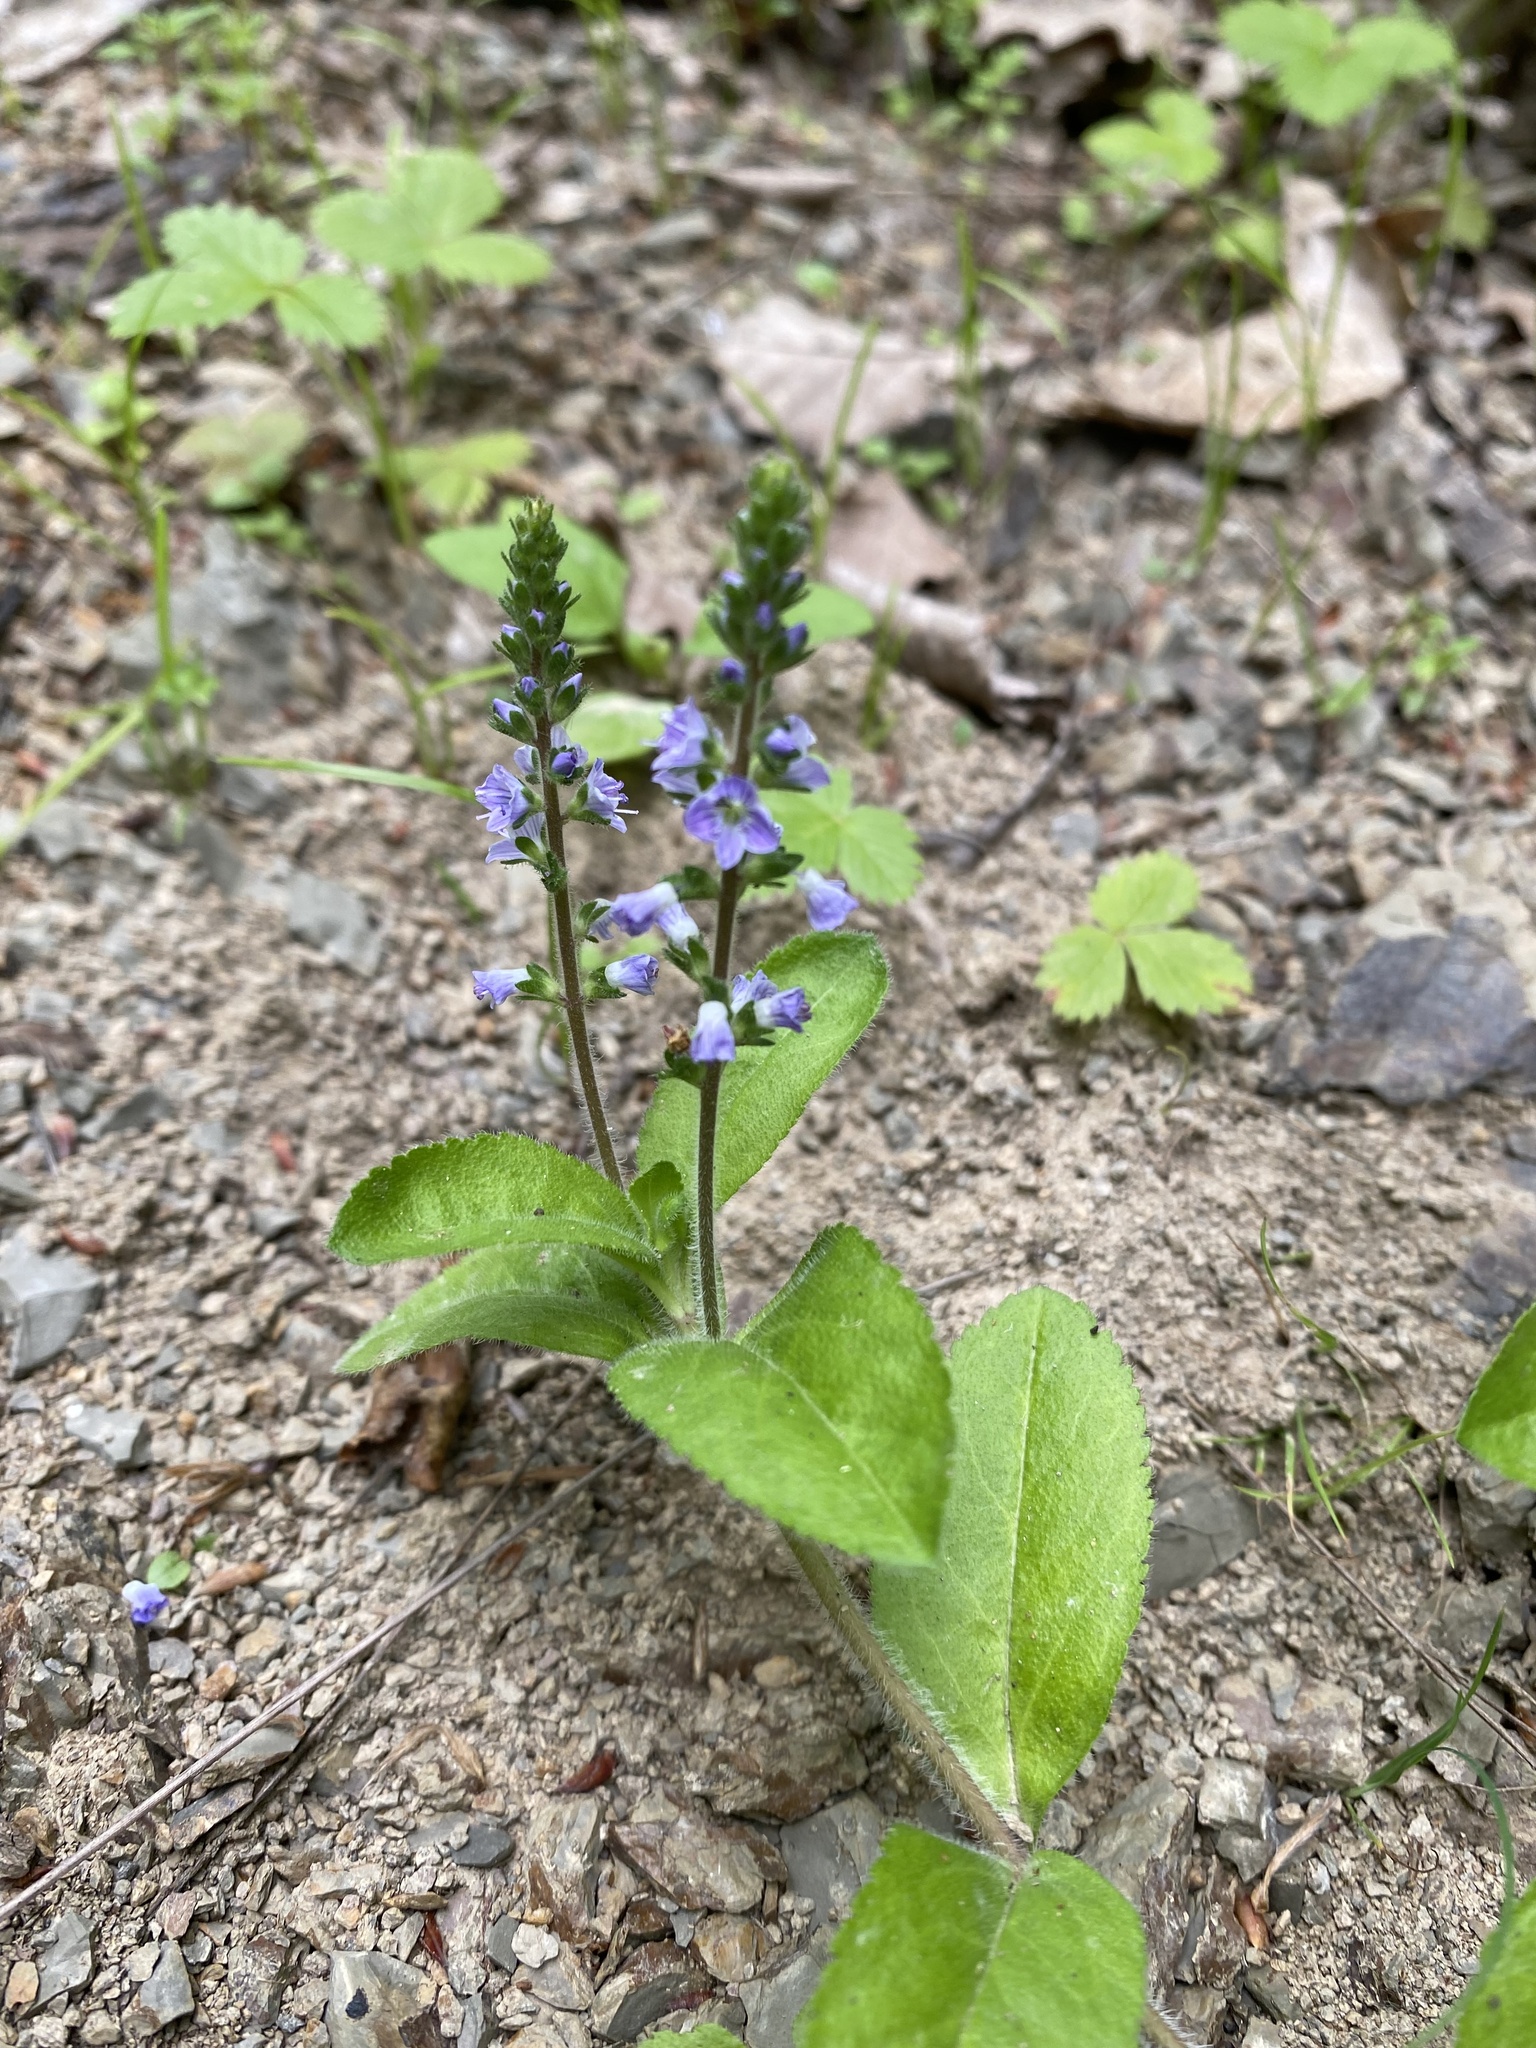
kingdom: Plantae
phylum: Tracheophyta
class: Magnoliopsida
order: Lamiales
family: Plantaginaceae
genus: Veronica
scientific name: Veronica officinalis
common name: Common speedwell
